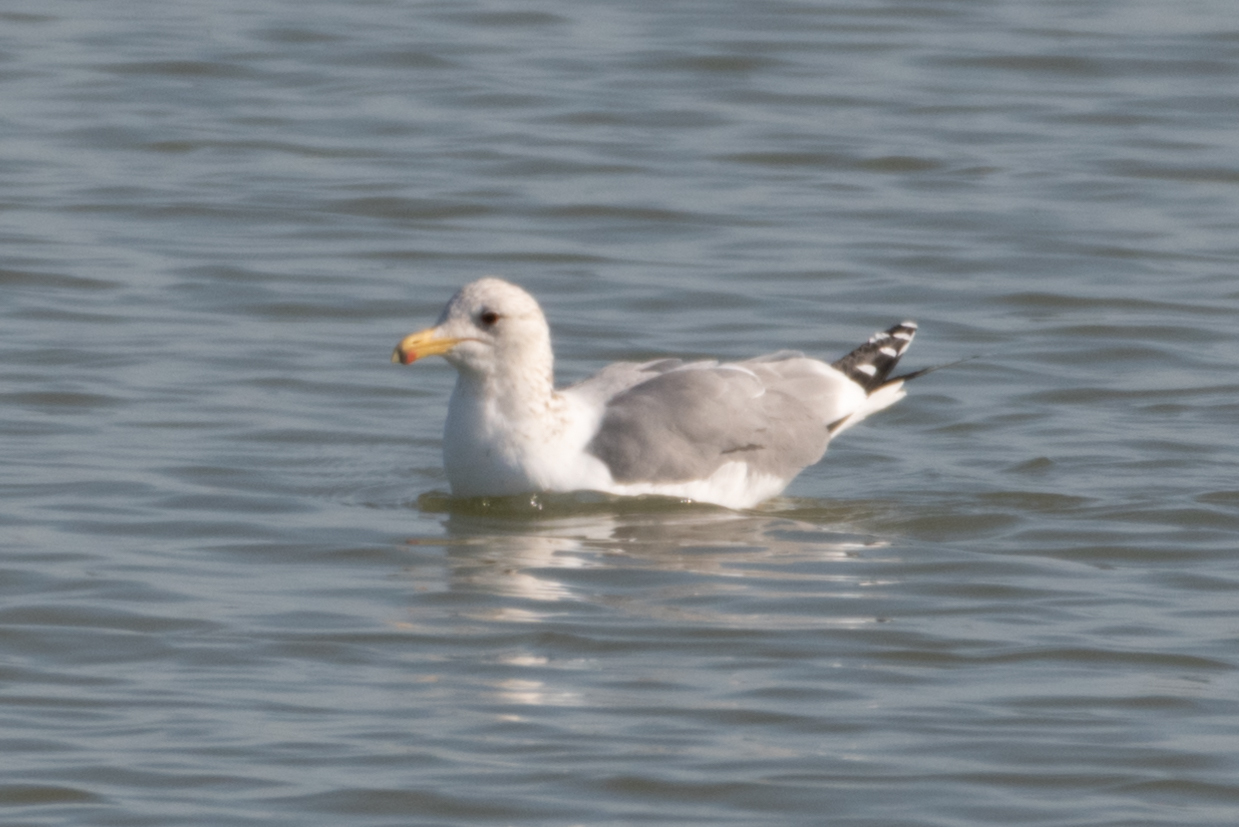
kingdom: Animalia
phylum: Chordata
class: Aves
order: Charadriiformes
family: Laridae
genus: Larus
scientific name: Larus californicus
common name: California gull
